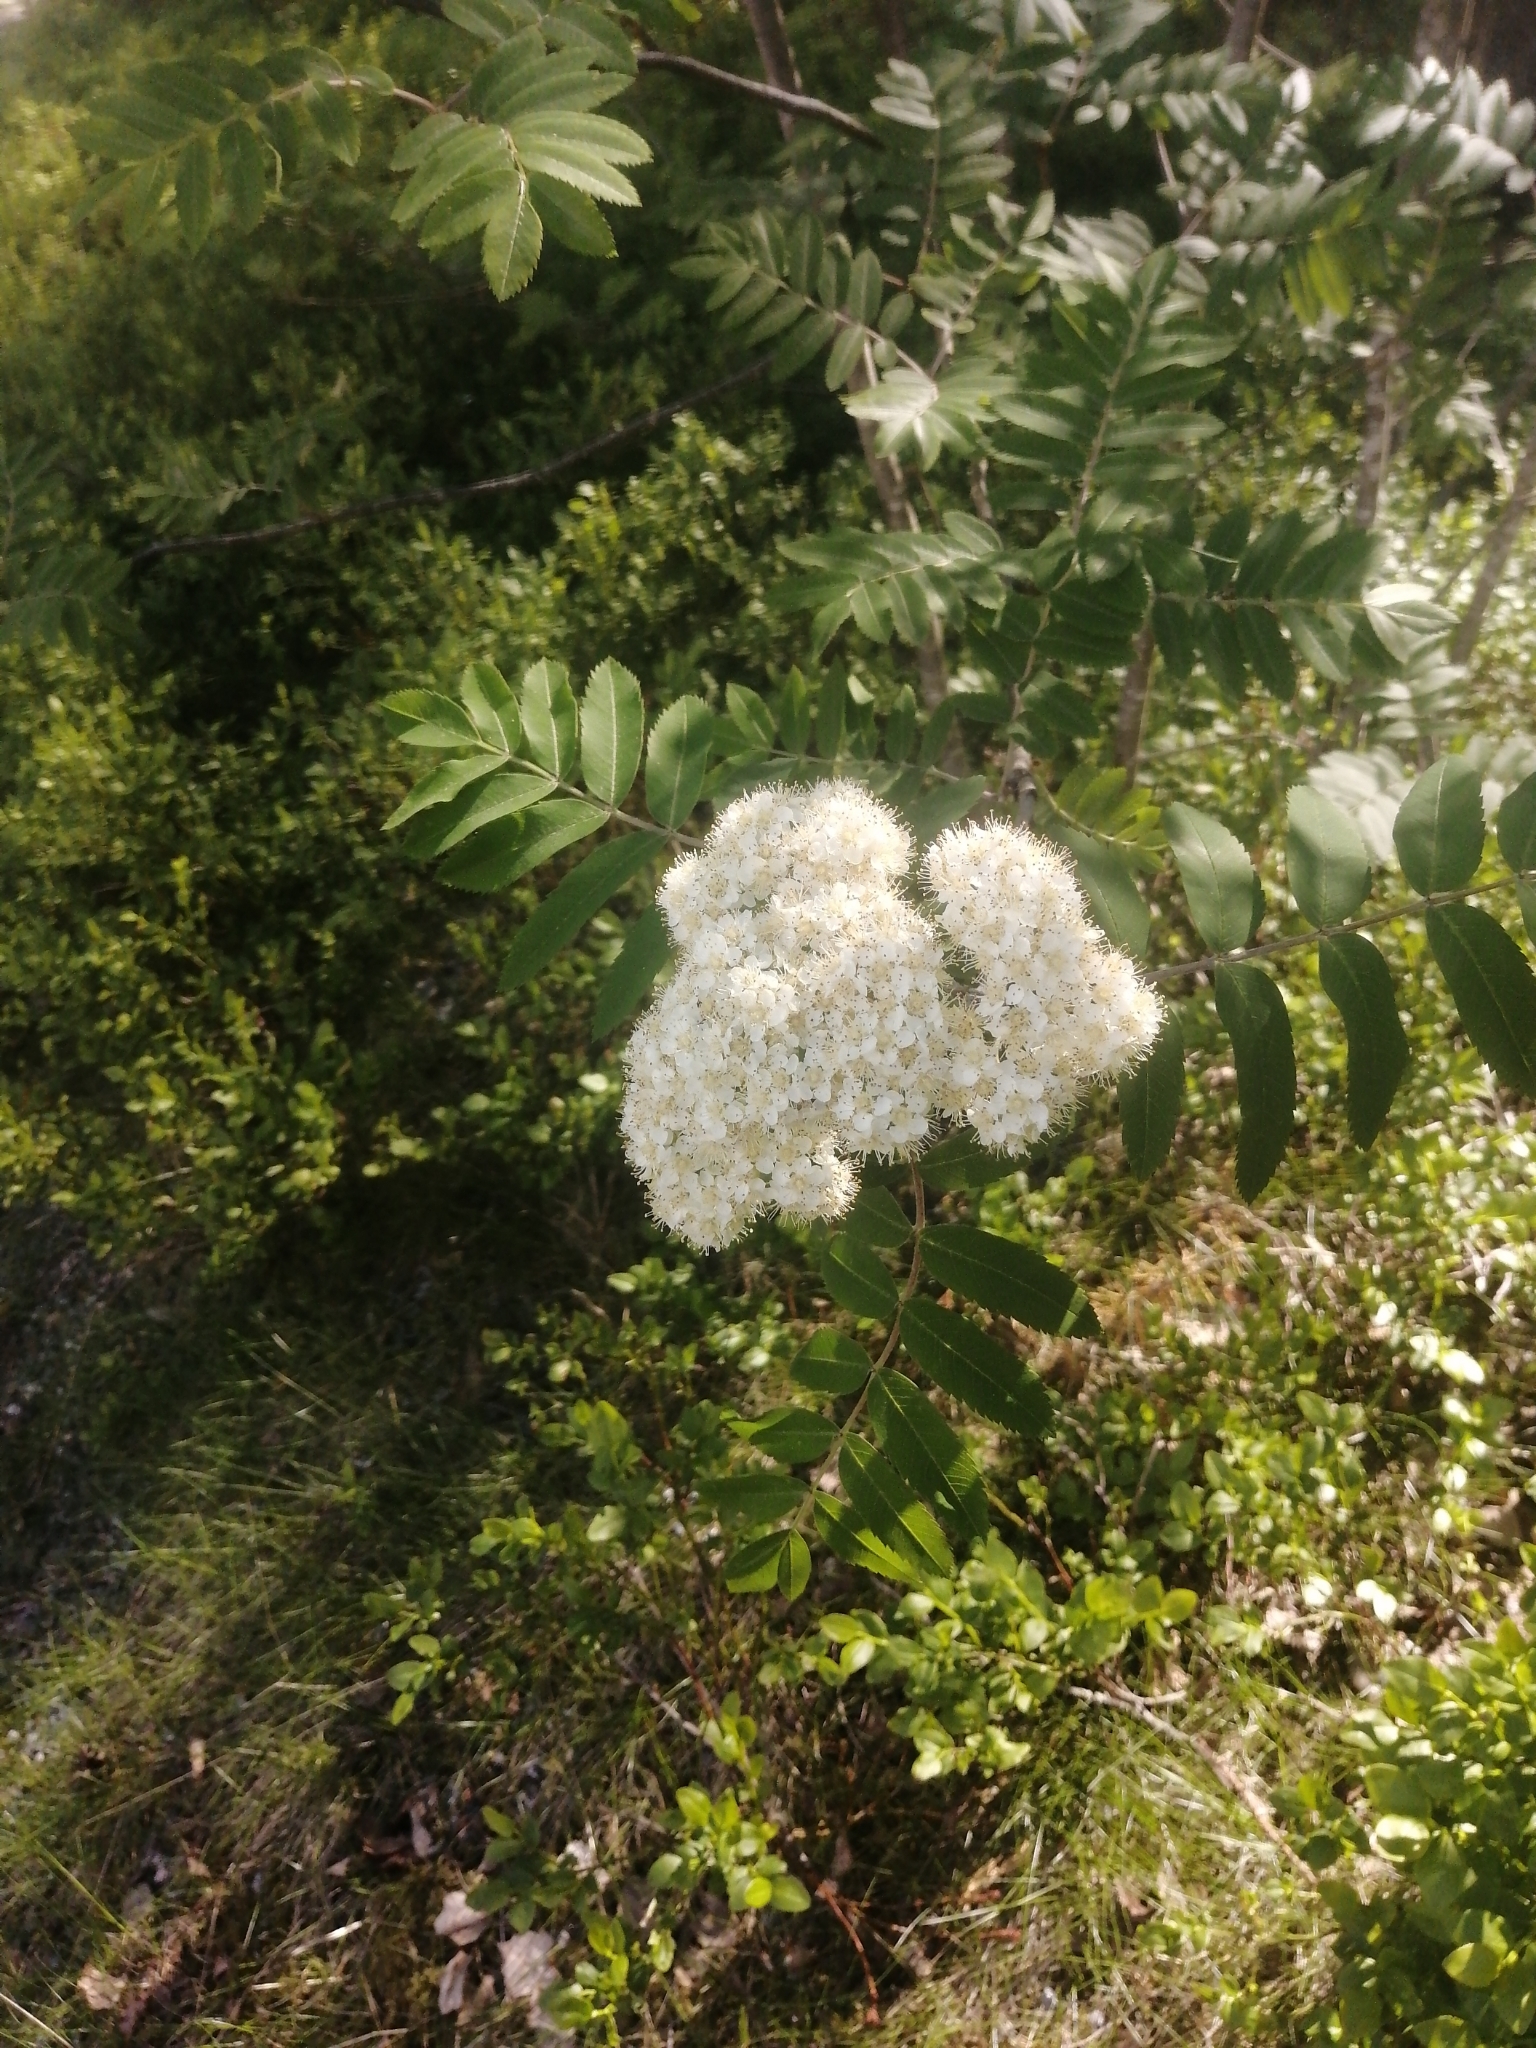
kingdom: Plantae
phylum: Tracheophyta
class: Magnoliopsida
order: Rosales
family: Rosaceae
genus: Sorbus
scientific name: Sorbus aucuparia
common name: Rowan
